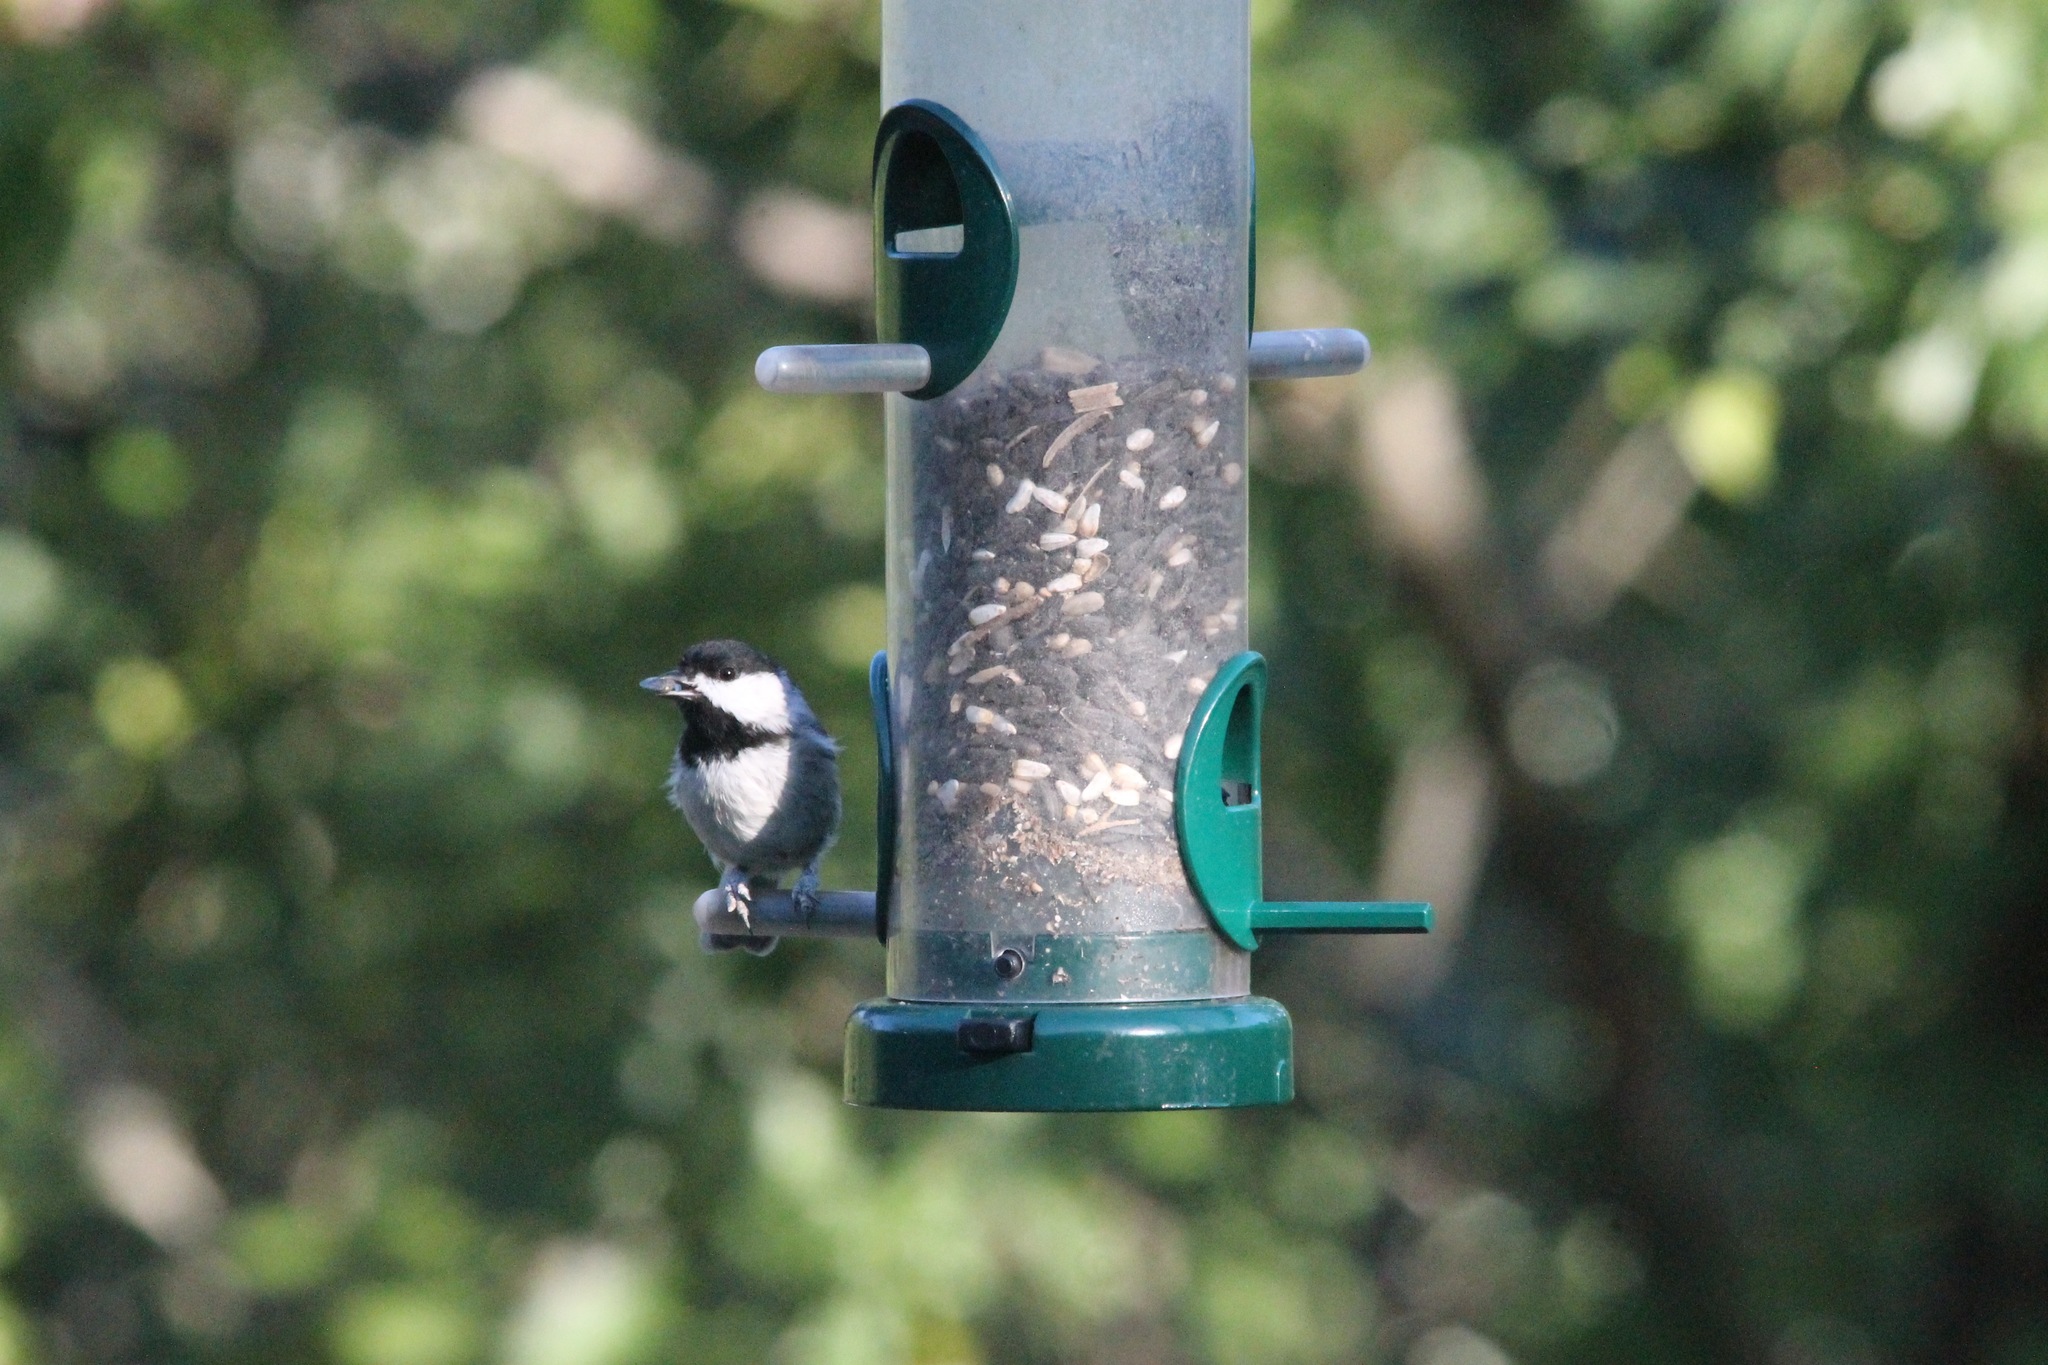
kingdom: Animalia
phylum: Chordata
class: Aves
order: Passeriformes
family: Paridae
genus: Poecile
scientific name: Poecile carolinensis
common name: Carolina chickadee
